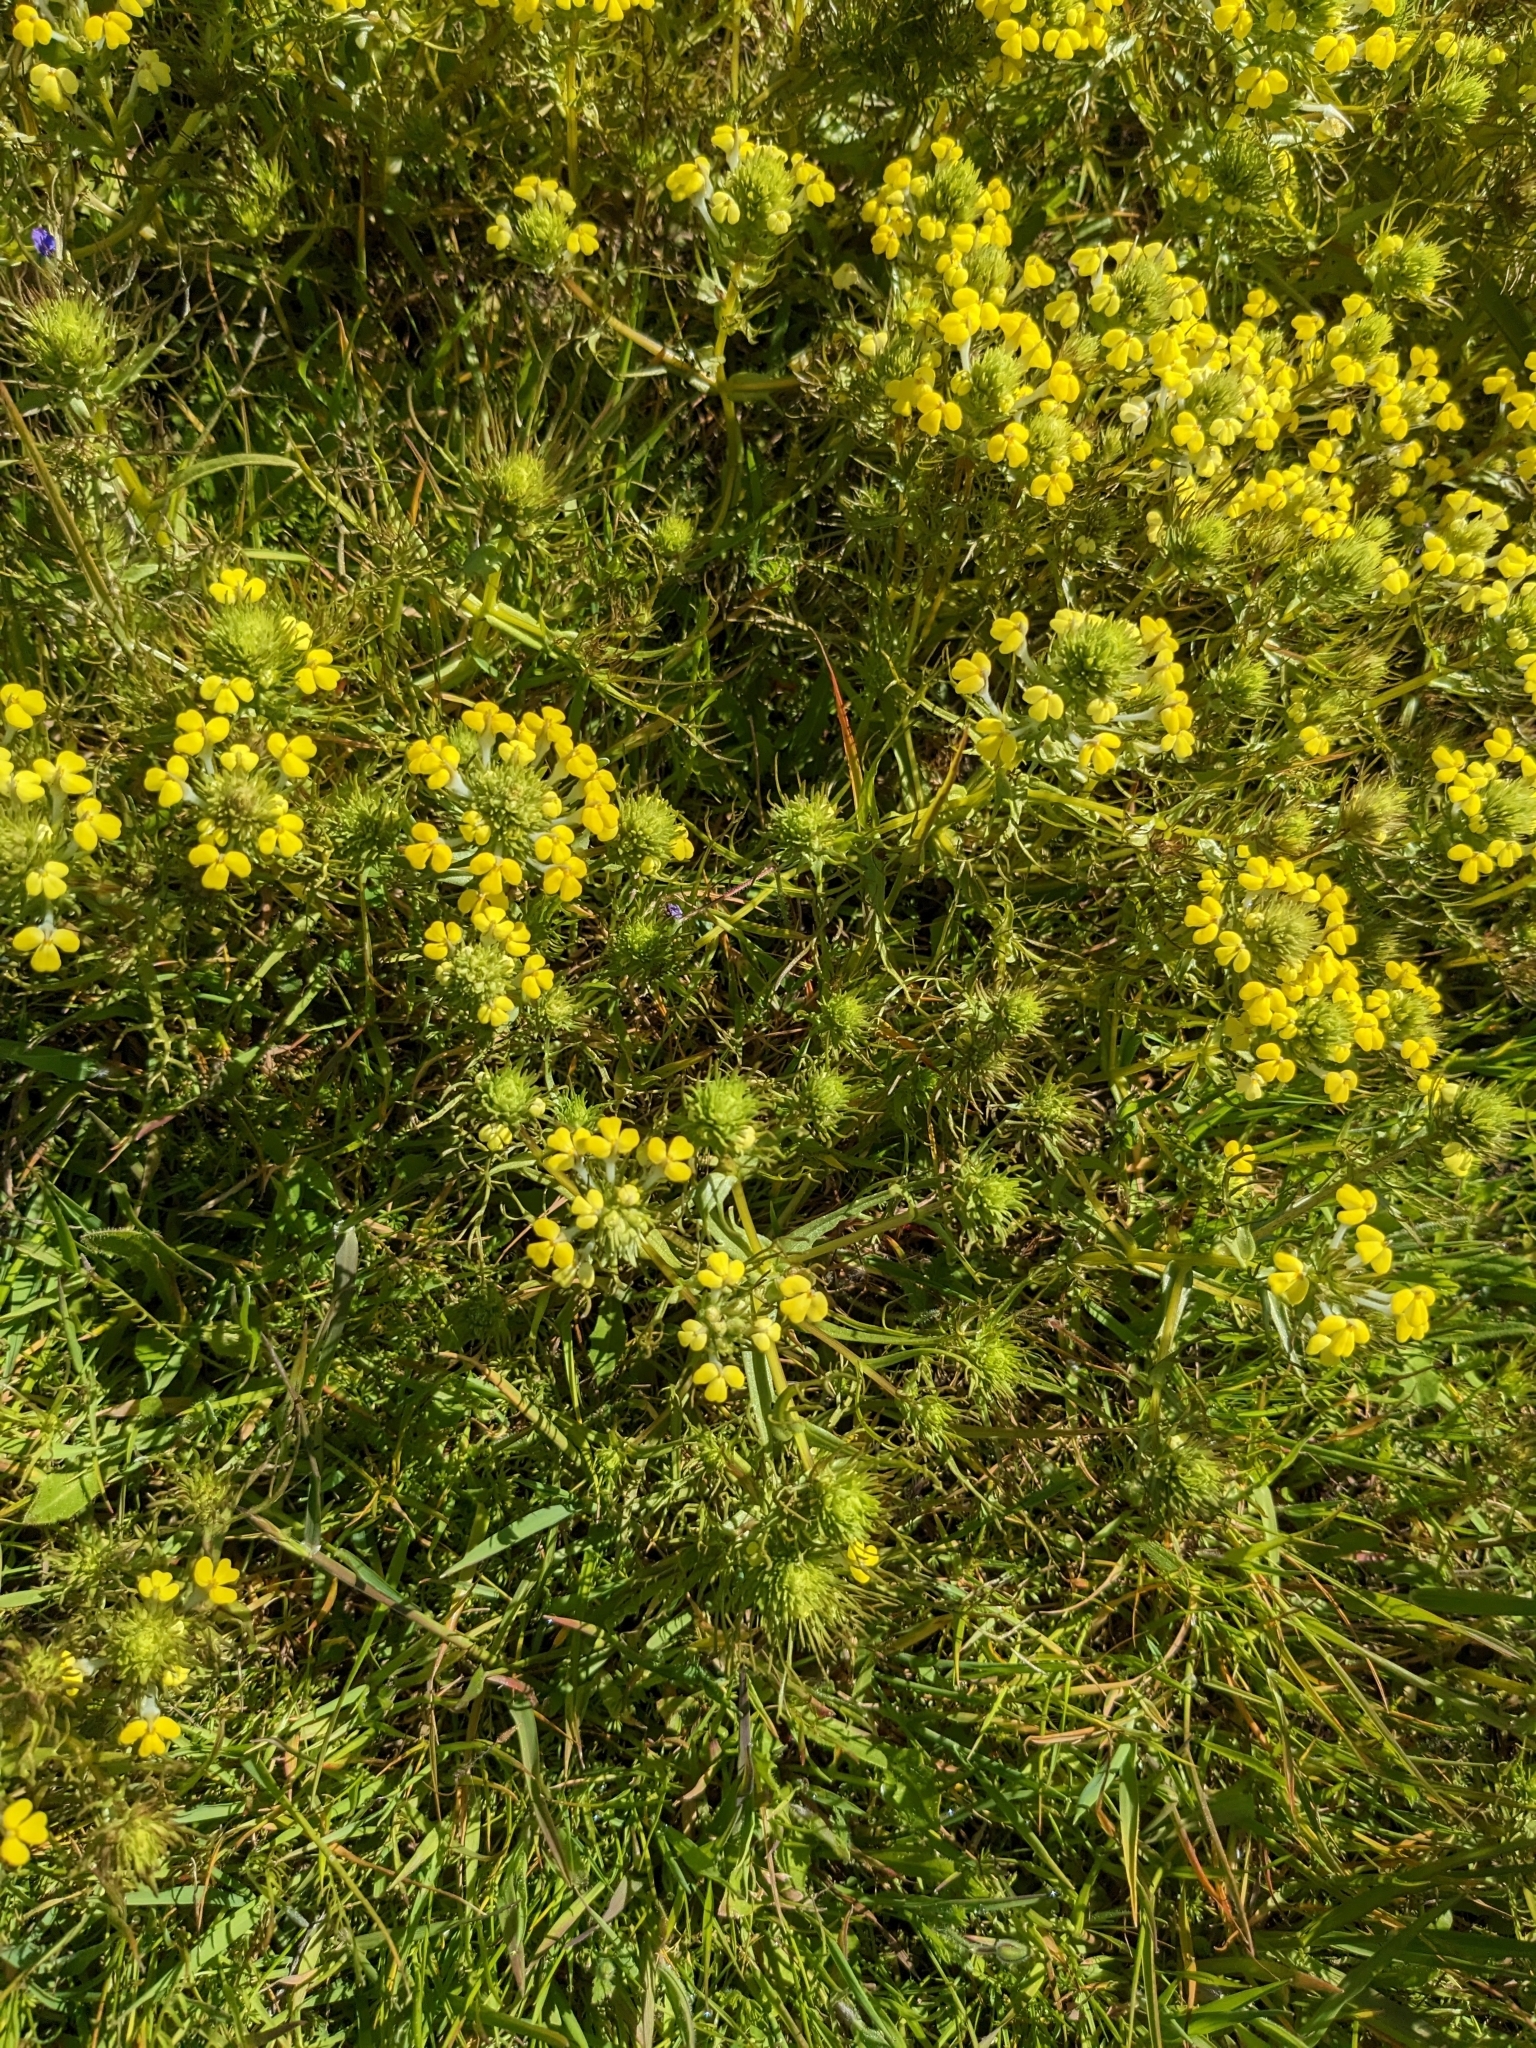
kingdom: Plantae
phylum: Tracheophyta
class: Magnoliopsida
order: Lamiales
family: Orobanchaceae
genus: Triphysaria
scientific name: Triphysaria versicolor
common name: Bearded false owl-clover
